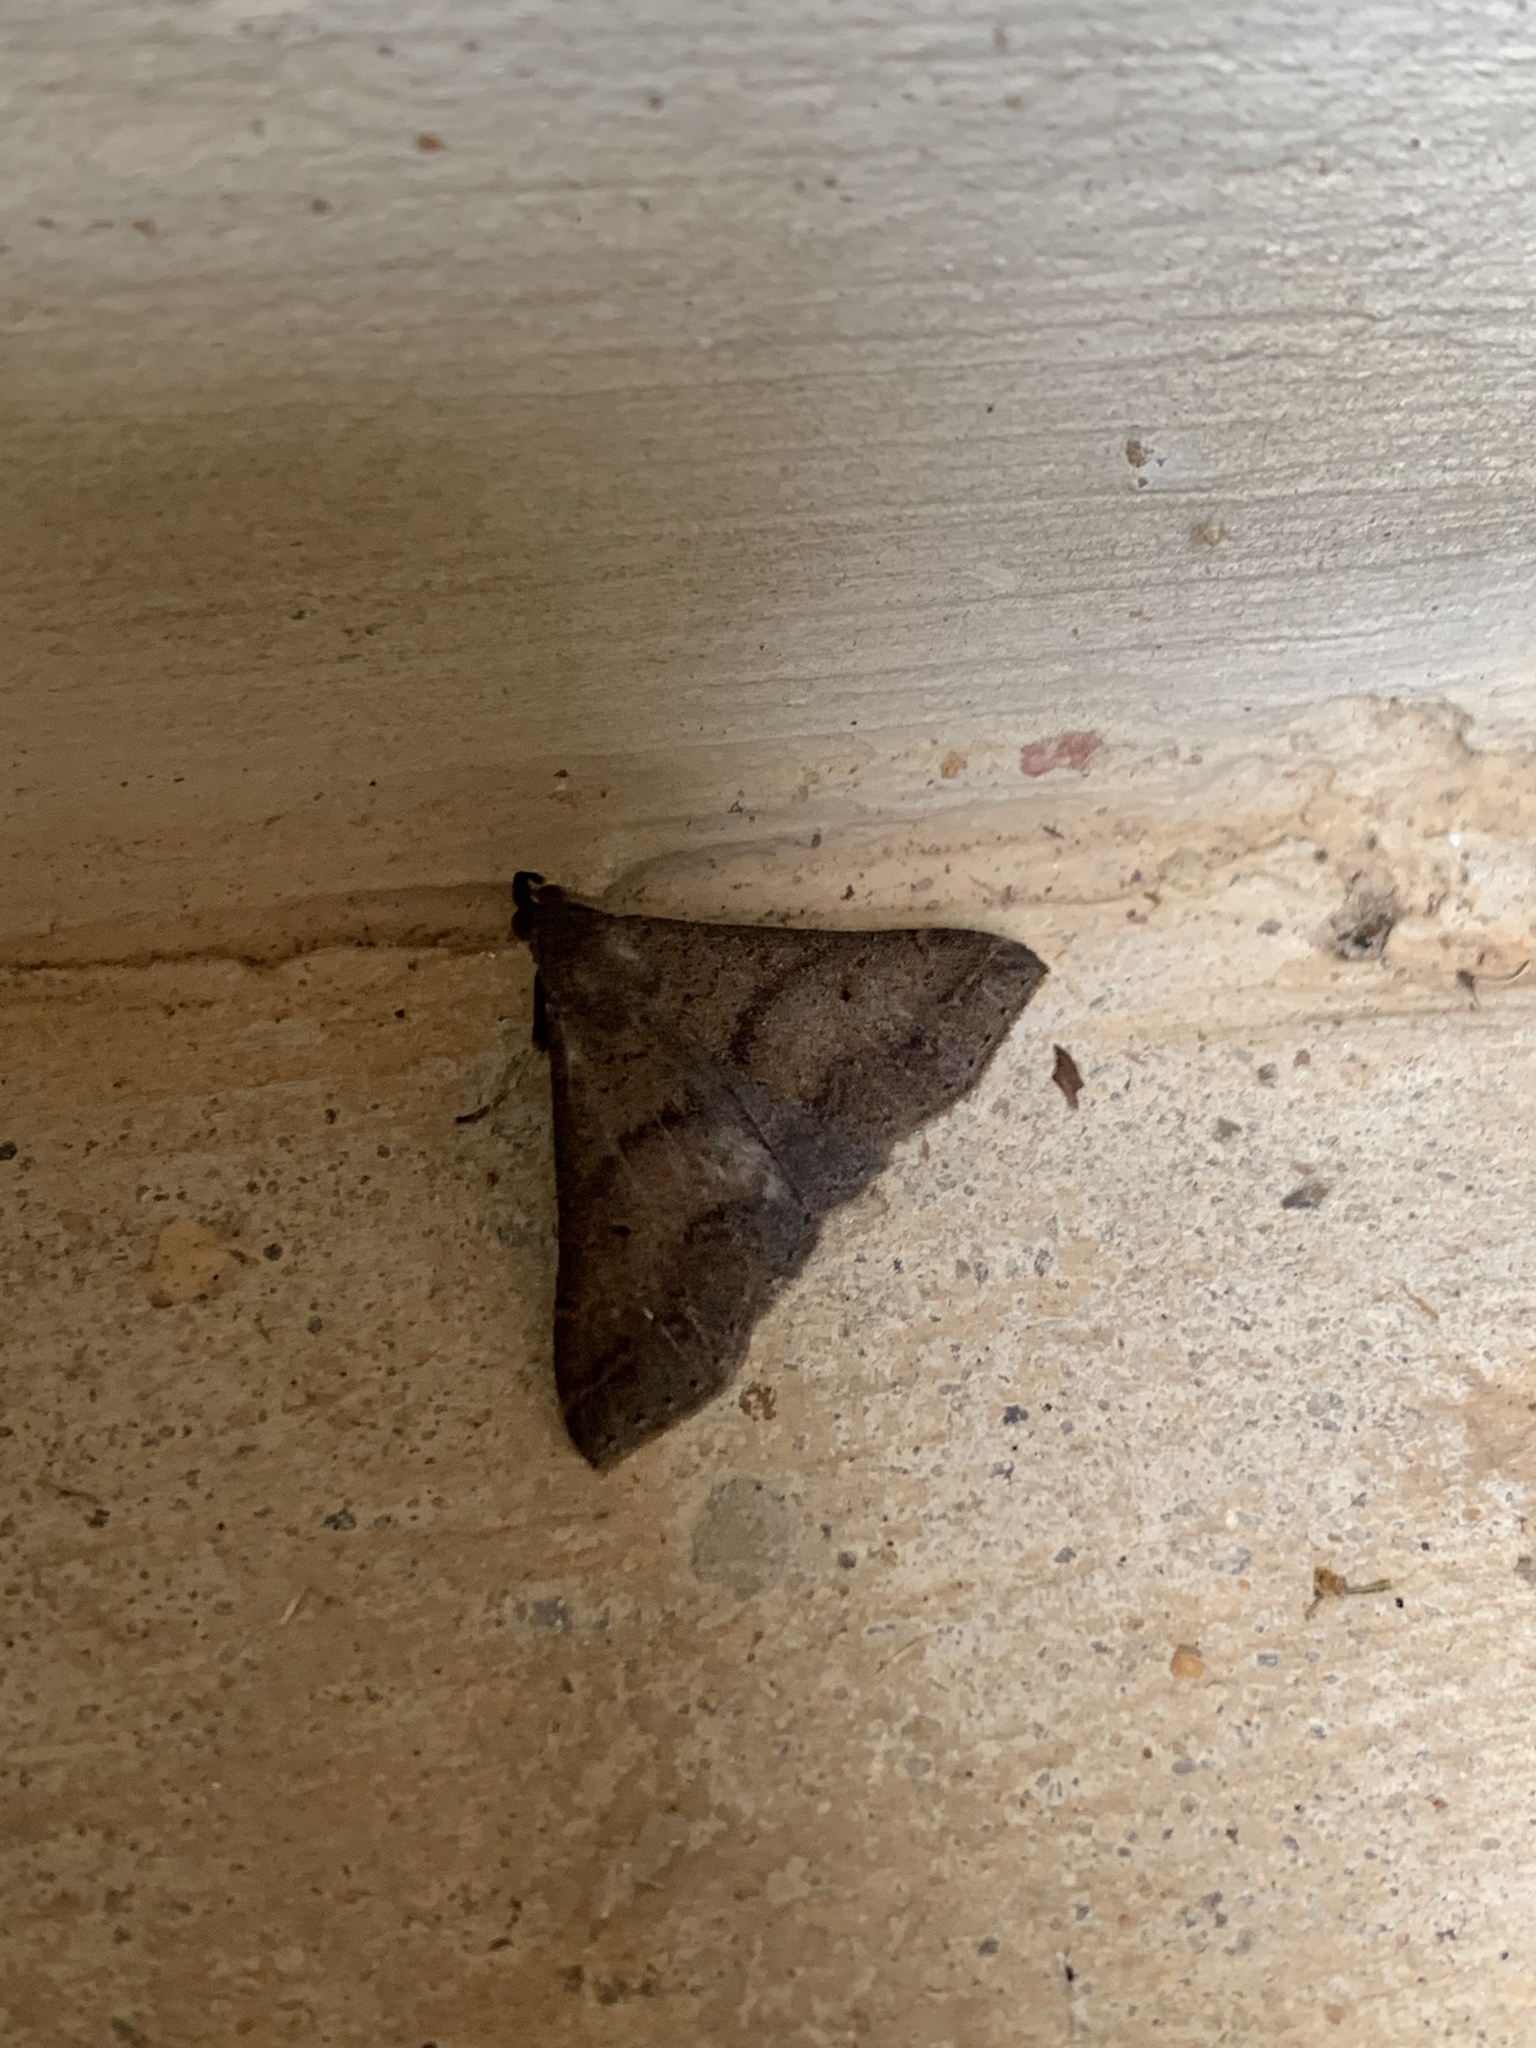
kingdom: Animalia
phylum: Arthropoda
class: Insecta
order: Lepidoptera
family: Erebidae
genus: Renia
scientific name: Renia discoloralis
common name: Discolored renia moth
